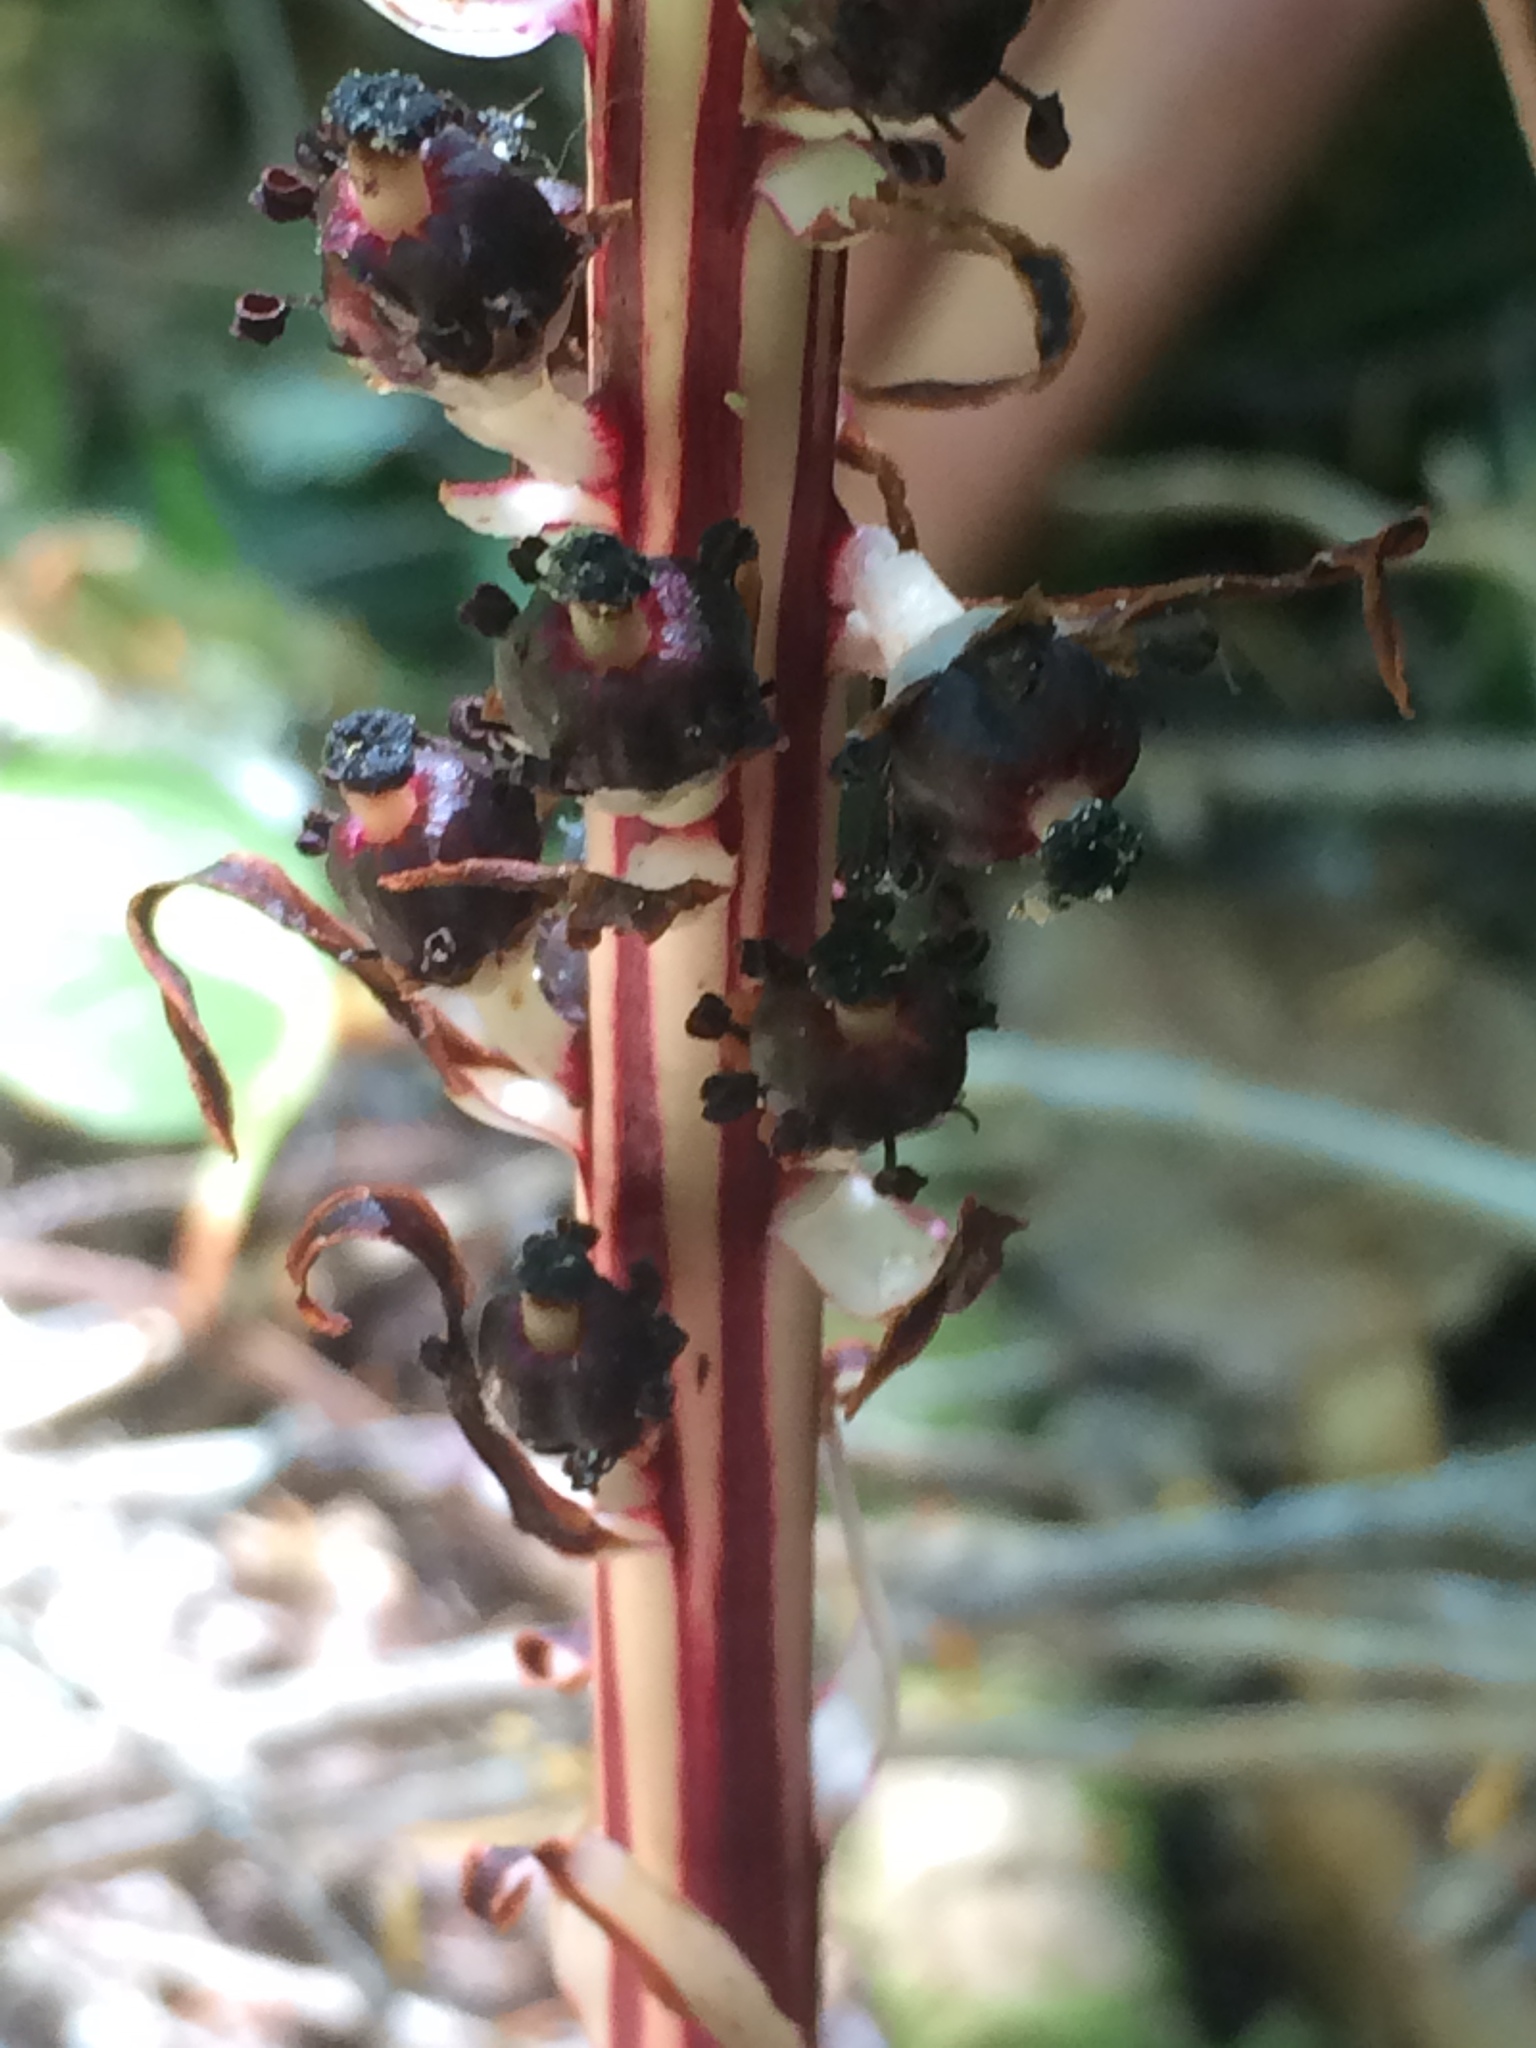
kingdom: Plantae
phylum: Tracheophyta
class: Magnoliopsida
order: Ericales
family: Ericaceae
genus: Allotropa
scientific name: Allotropa virgata
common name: Candy-striped allotropa
